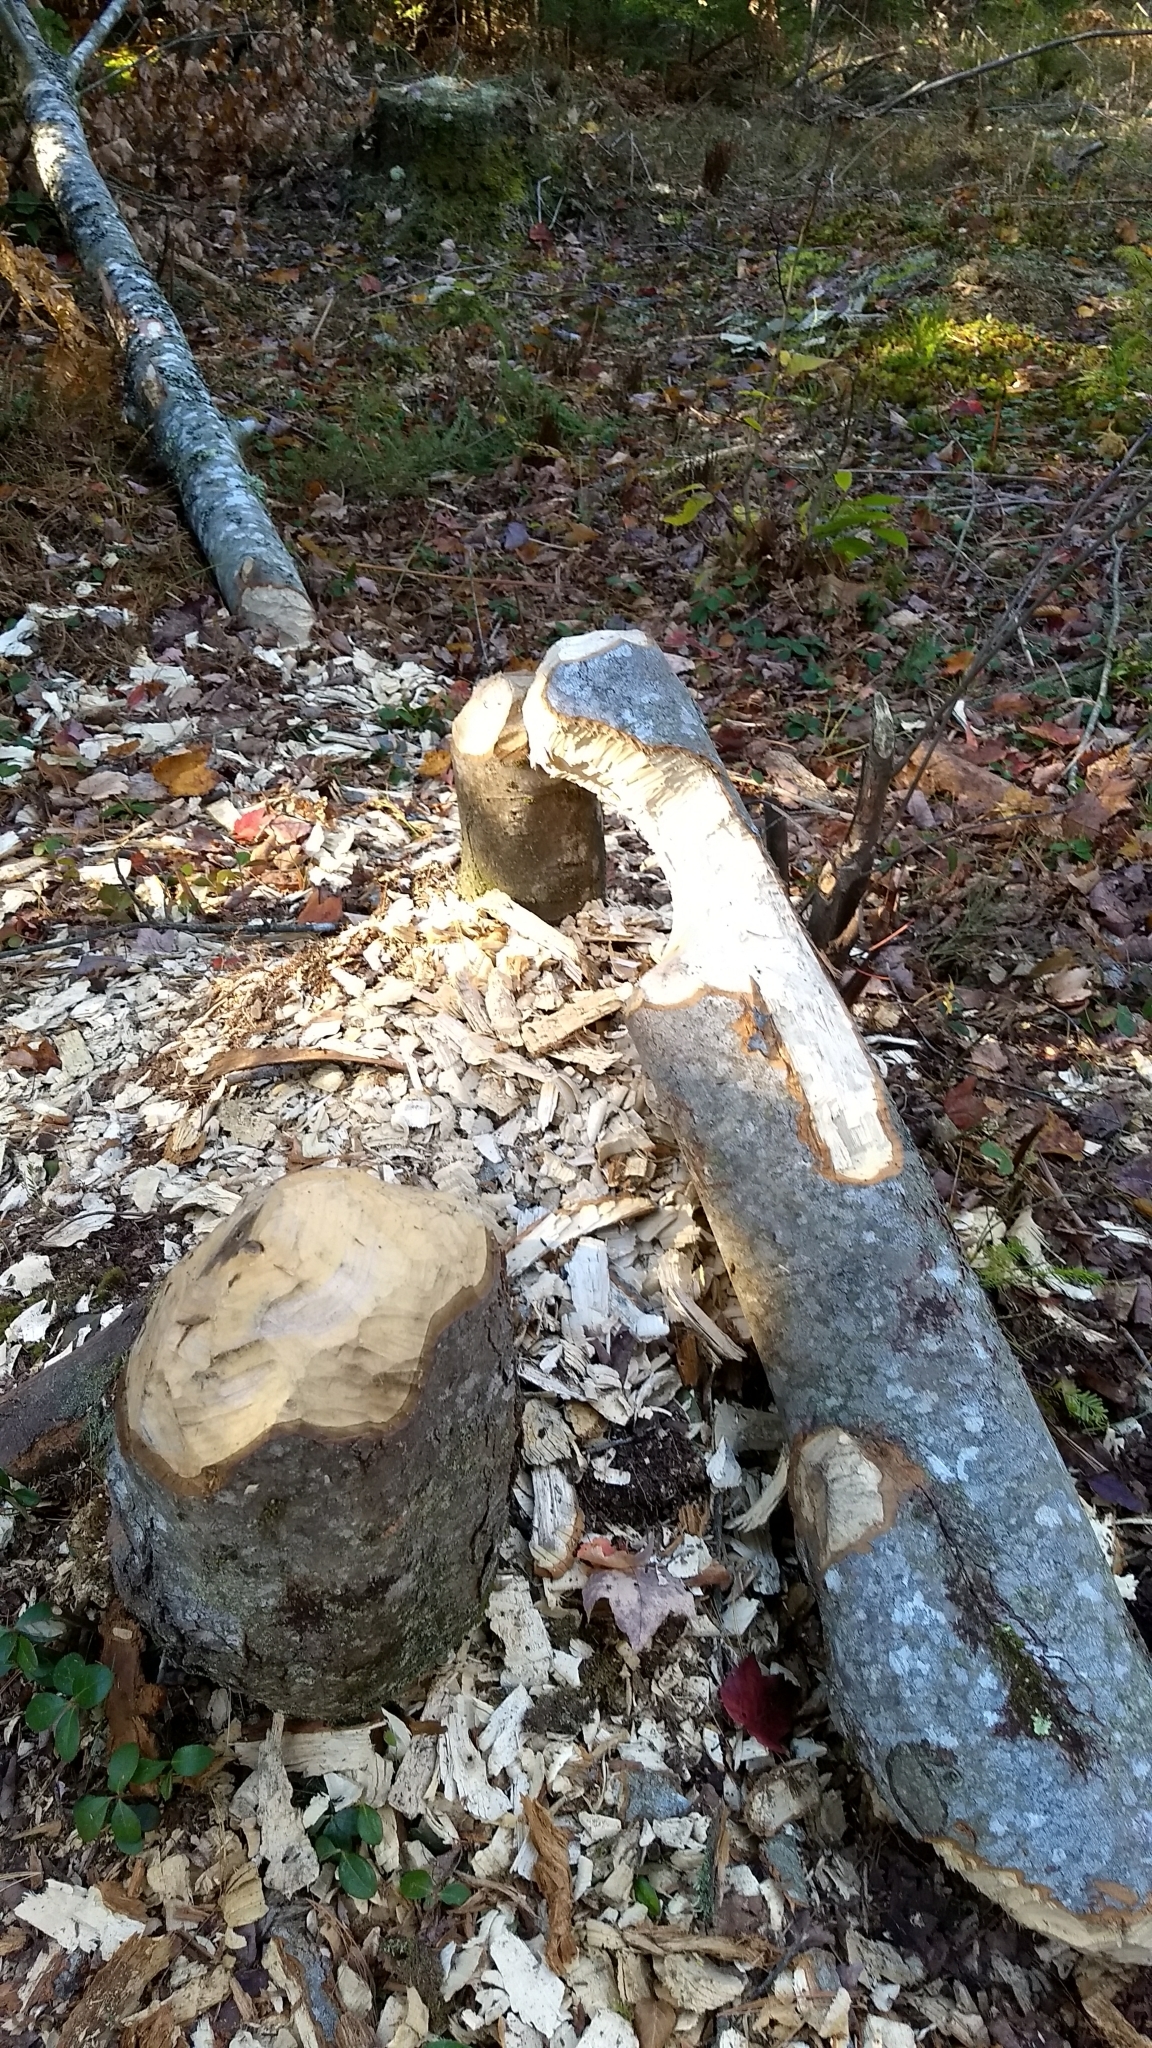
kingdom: Animalia
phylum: Chordata
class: Mammalia
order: Rodentia
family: Castoridae
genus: Castor
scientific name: Castor canadensis
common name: American beaver
